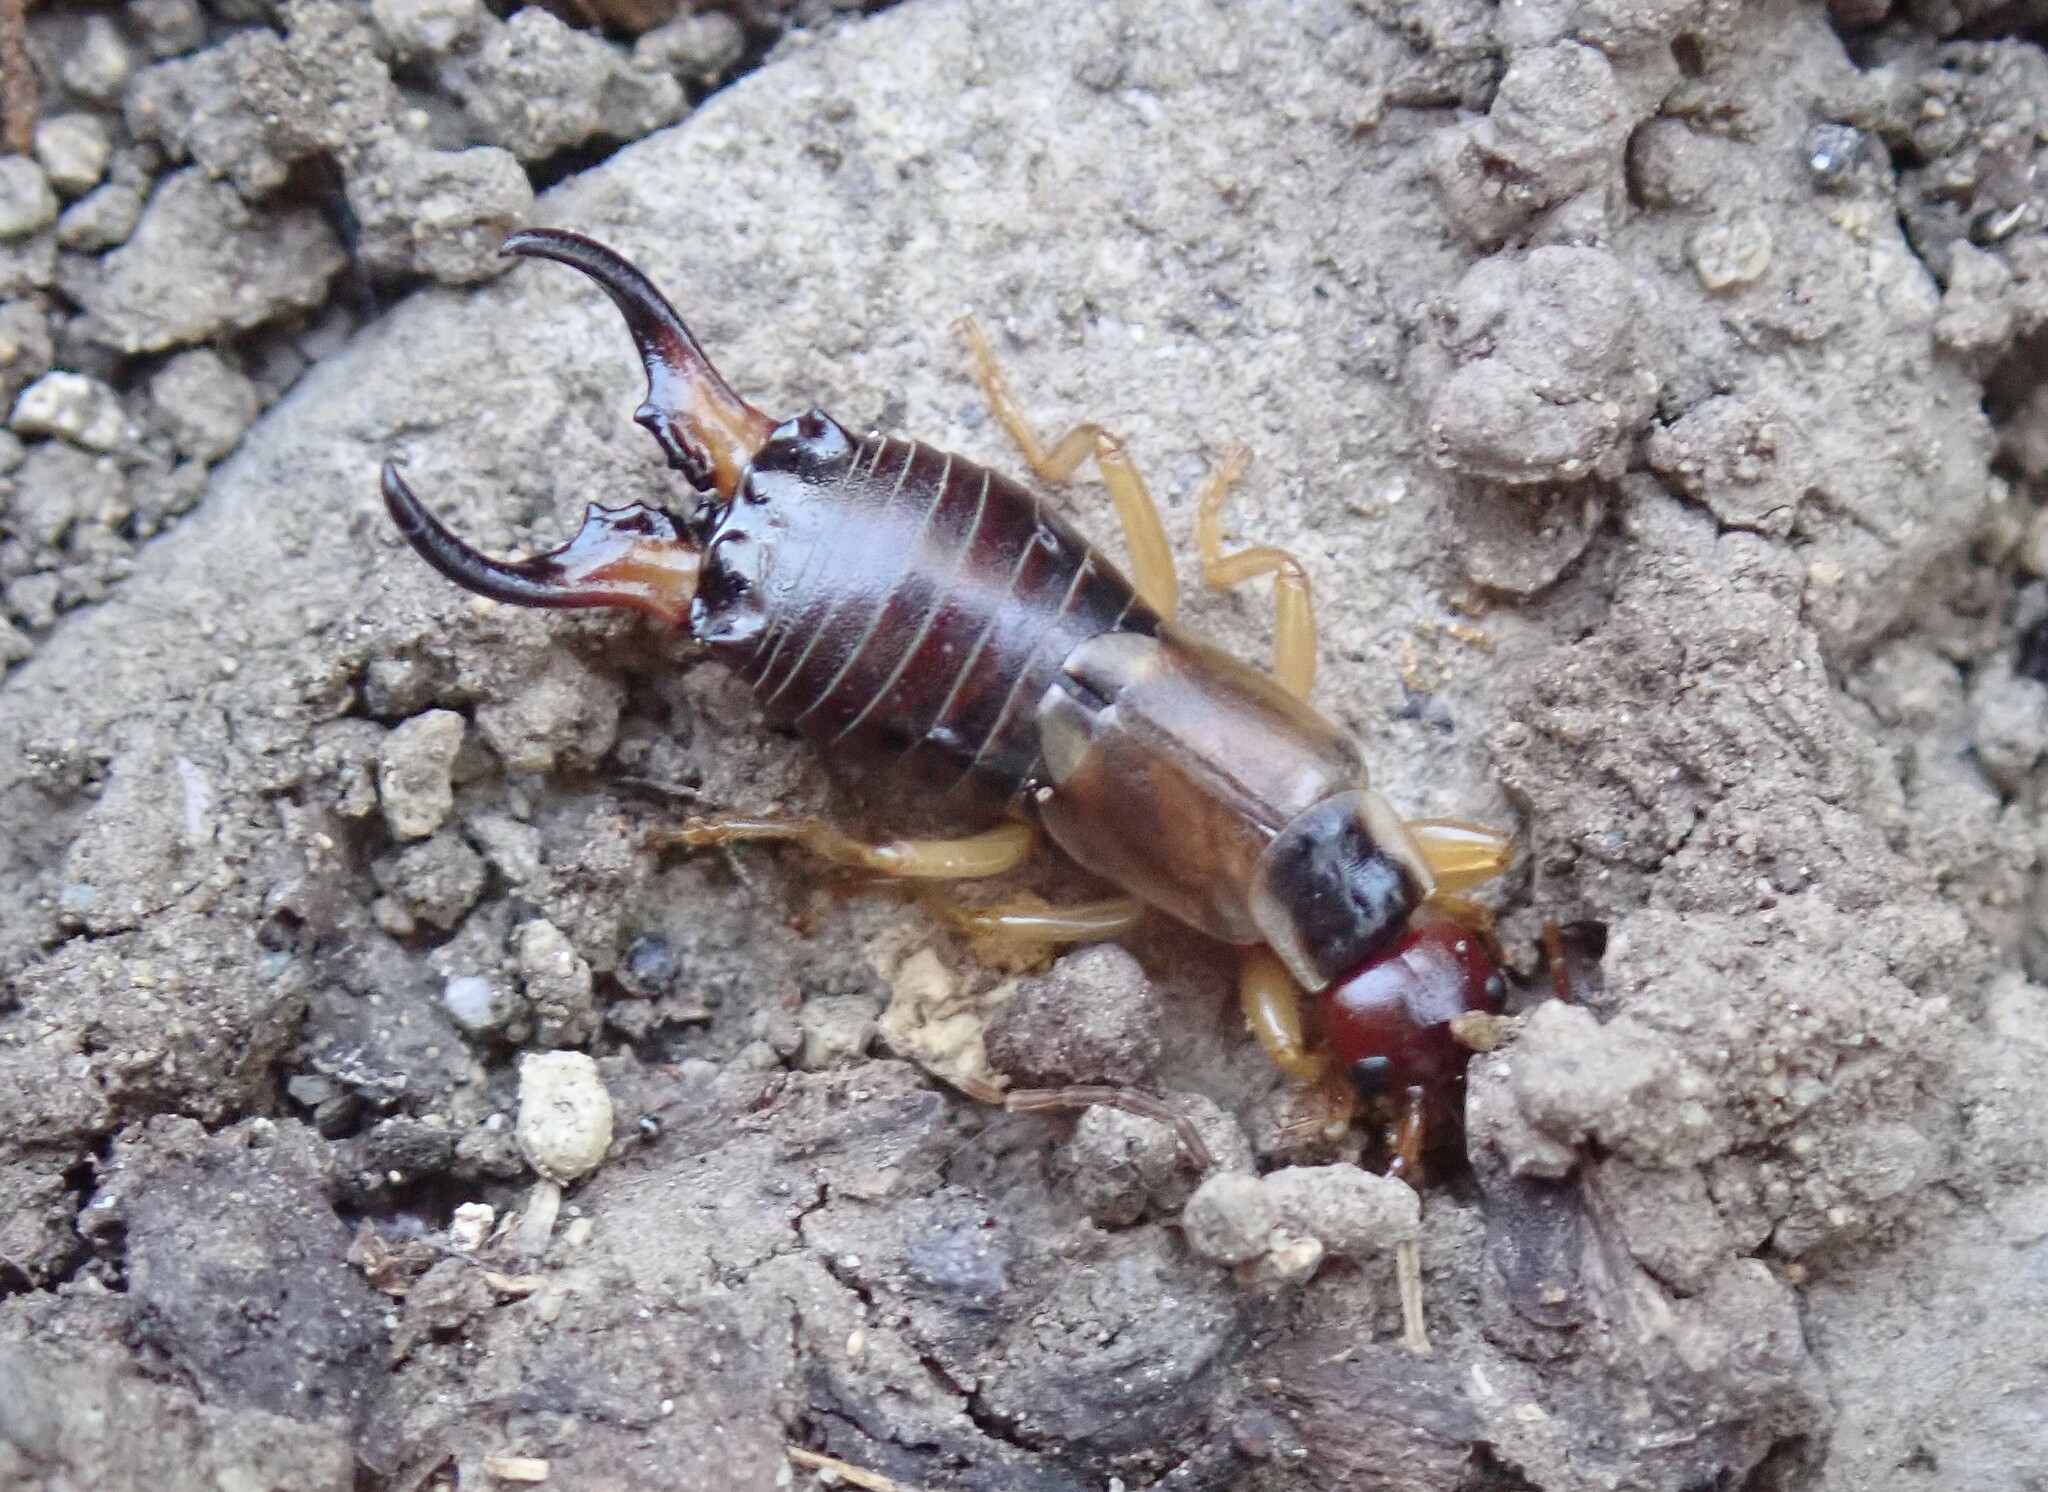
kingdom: Animalia
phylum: Arthropoda
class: Insecta
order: Dermaptera
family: Forficulidae
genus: Forficula
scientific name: Forficula
